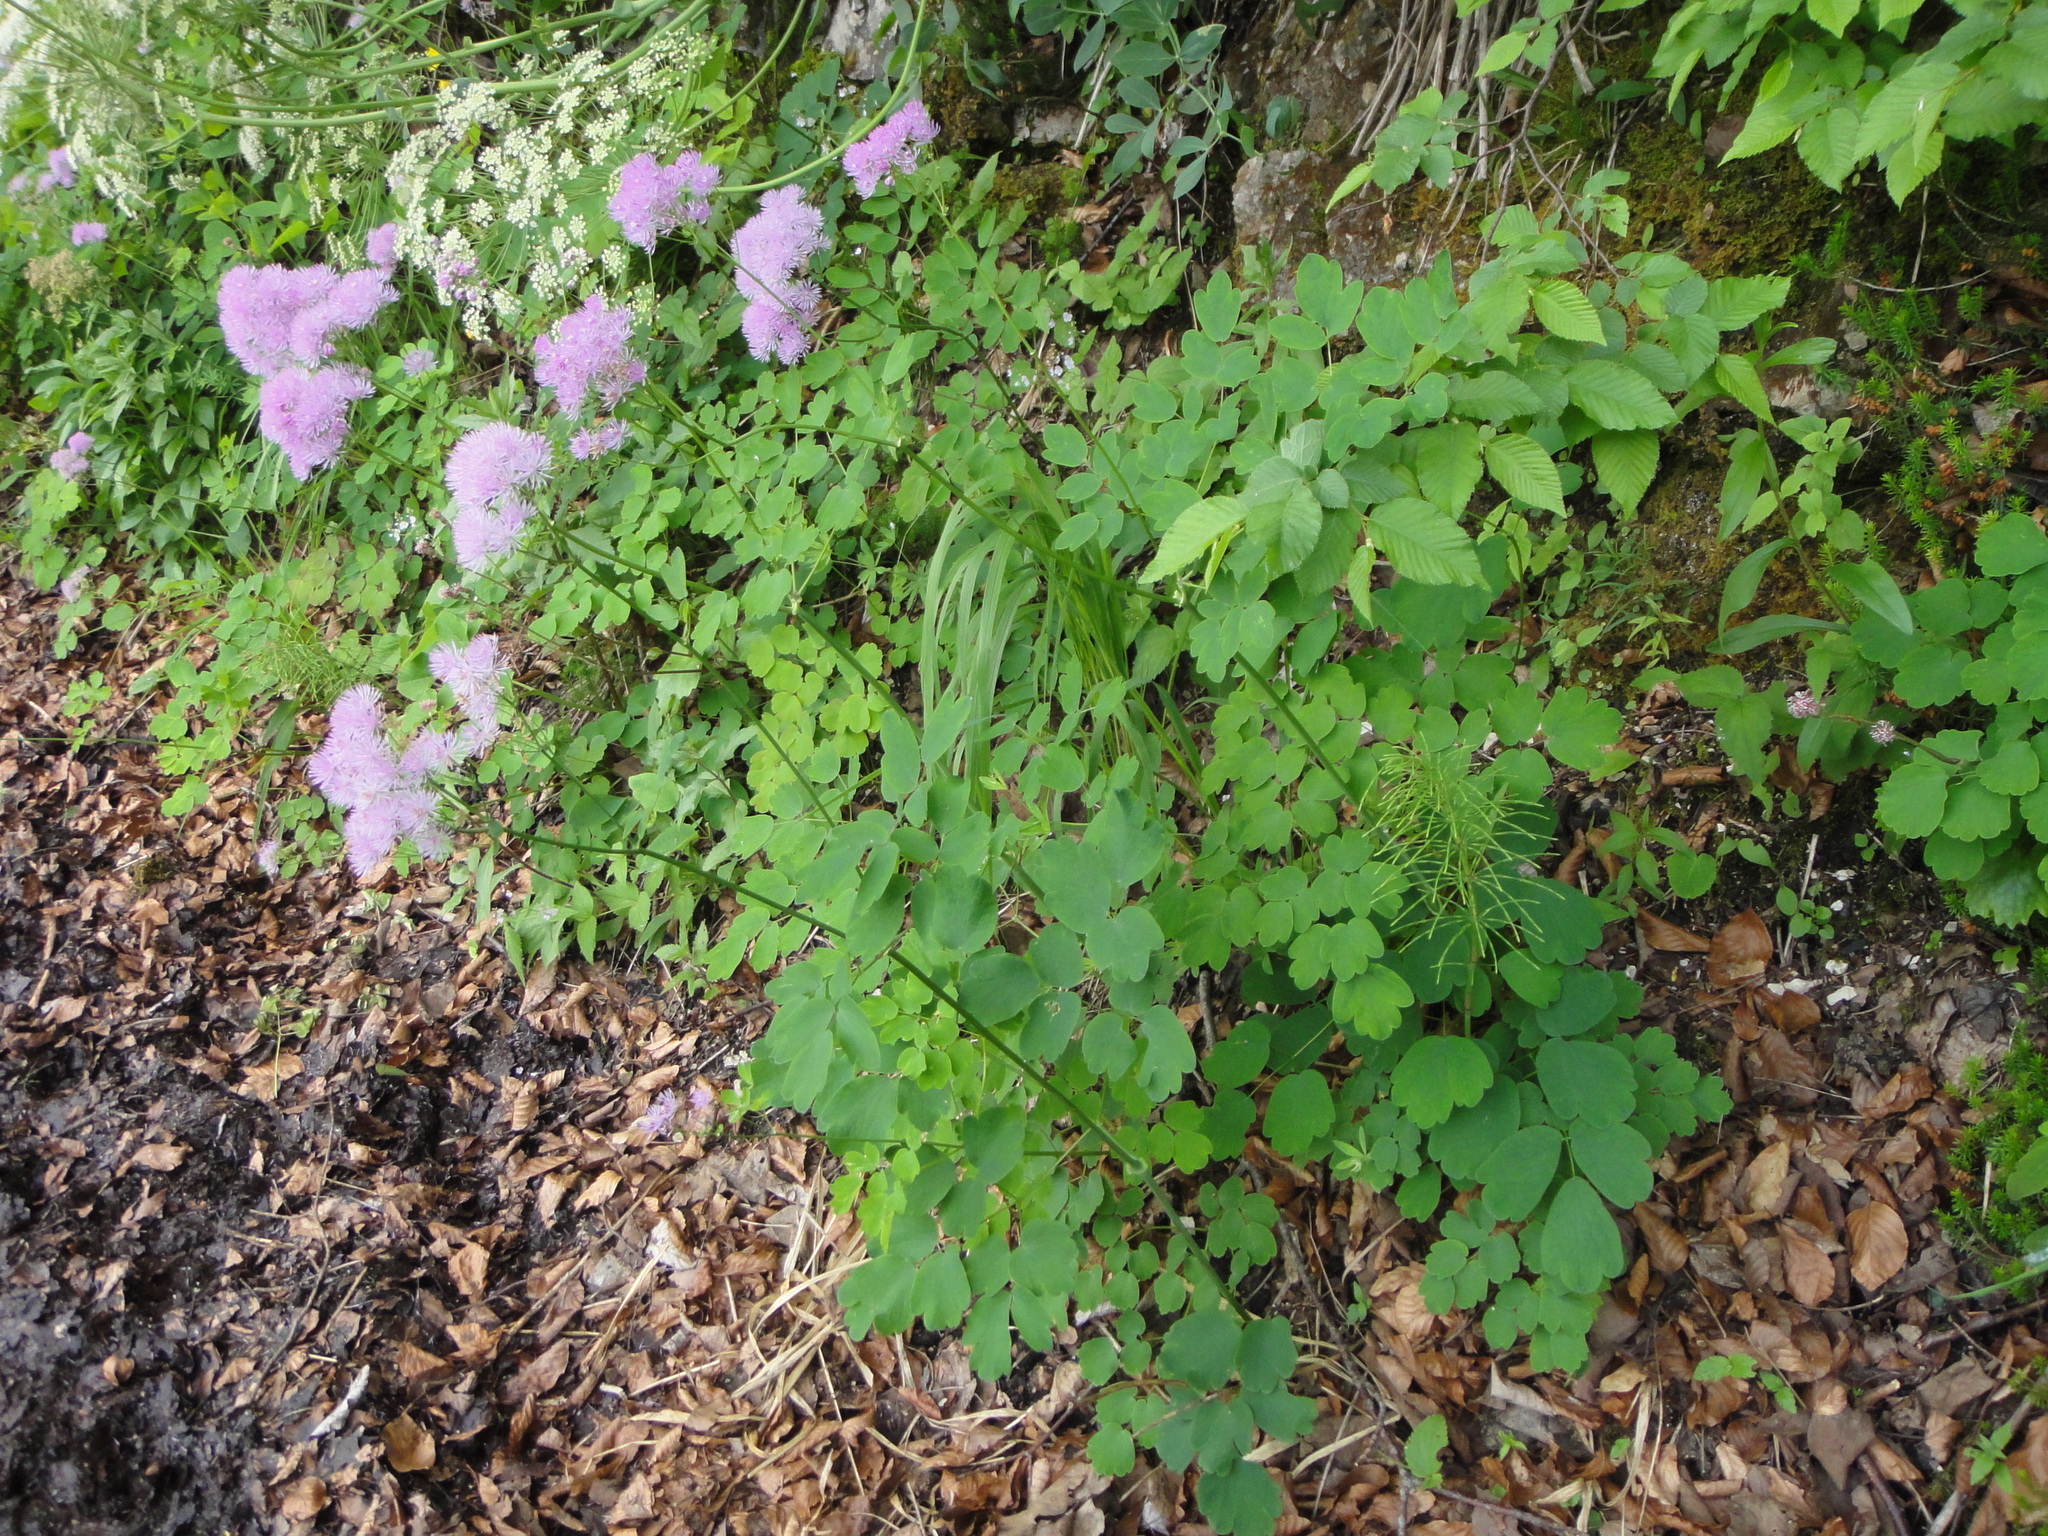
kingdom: Plantae
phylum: Tracheophyta
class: Magnoliopsida
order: Ranunculales
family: Ranunculaceae
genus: Thalictrum
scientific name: Thalictrum aquilegiifolium
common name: French meadow-rue
